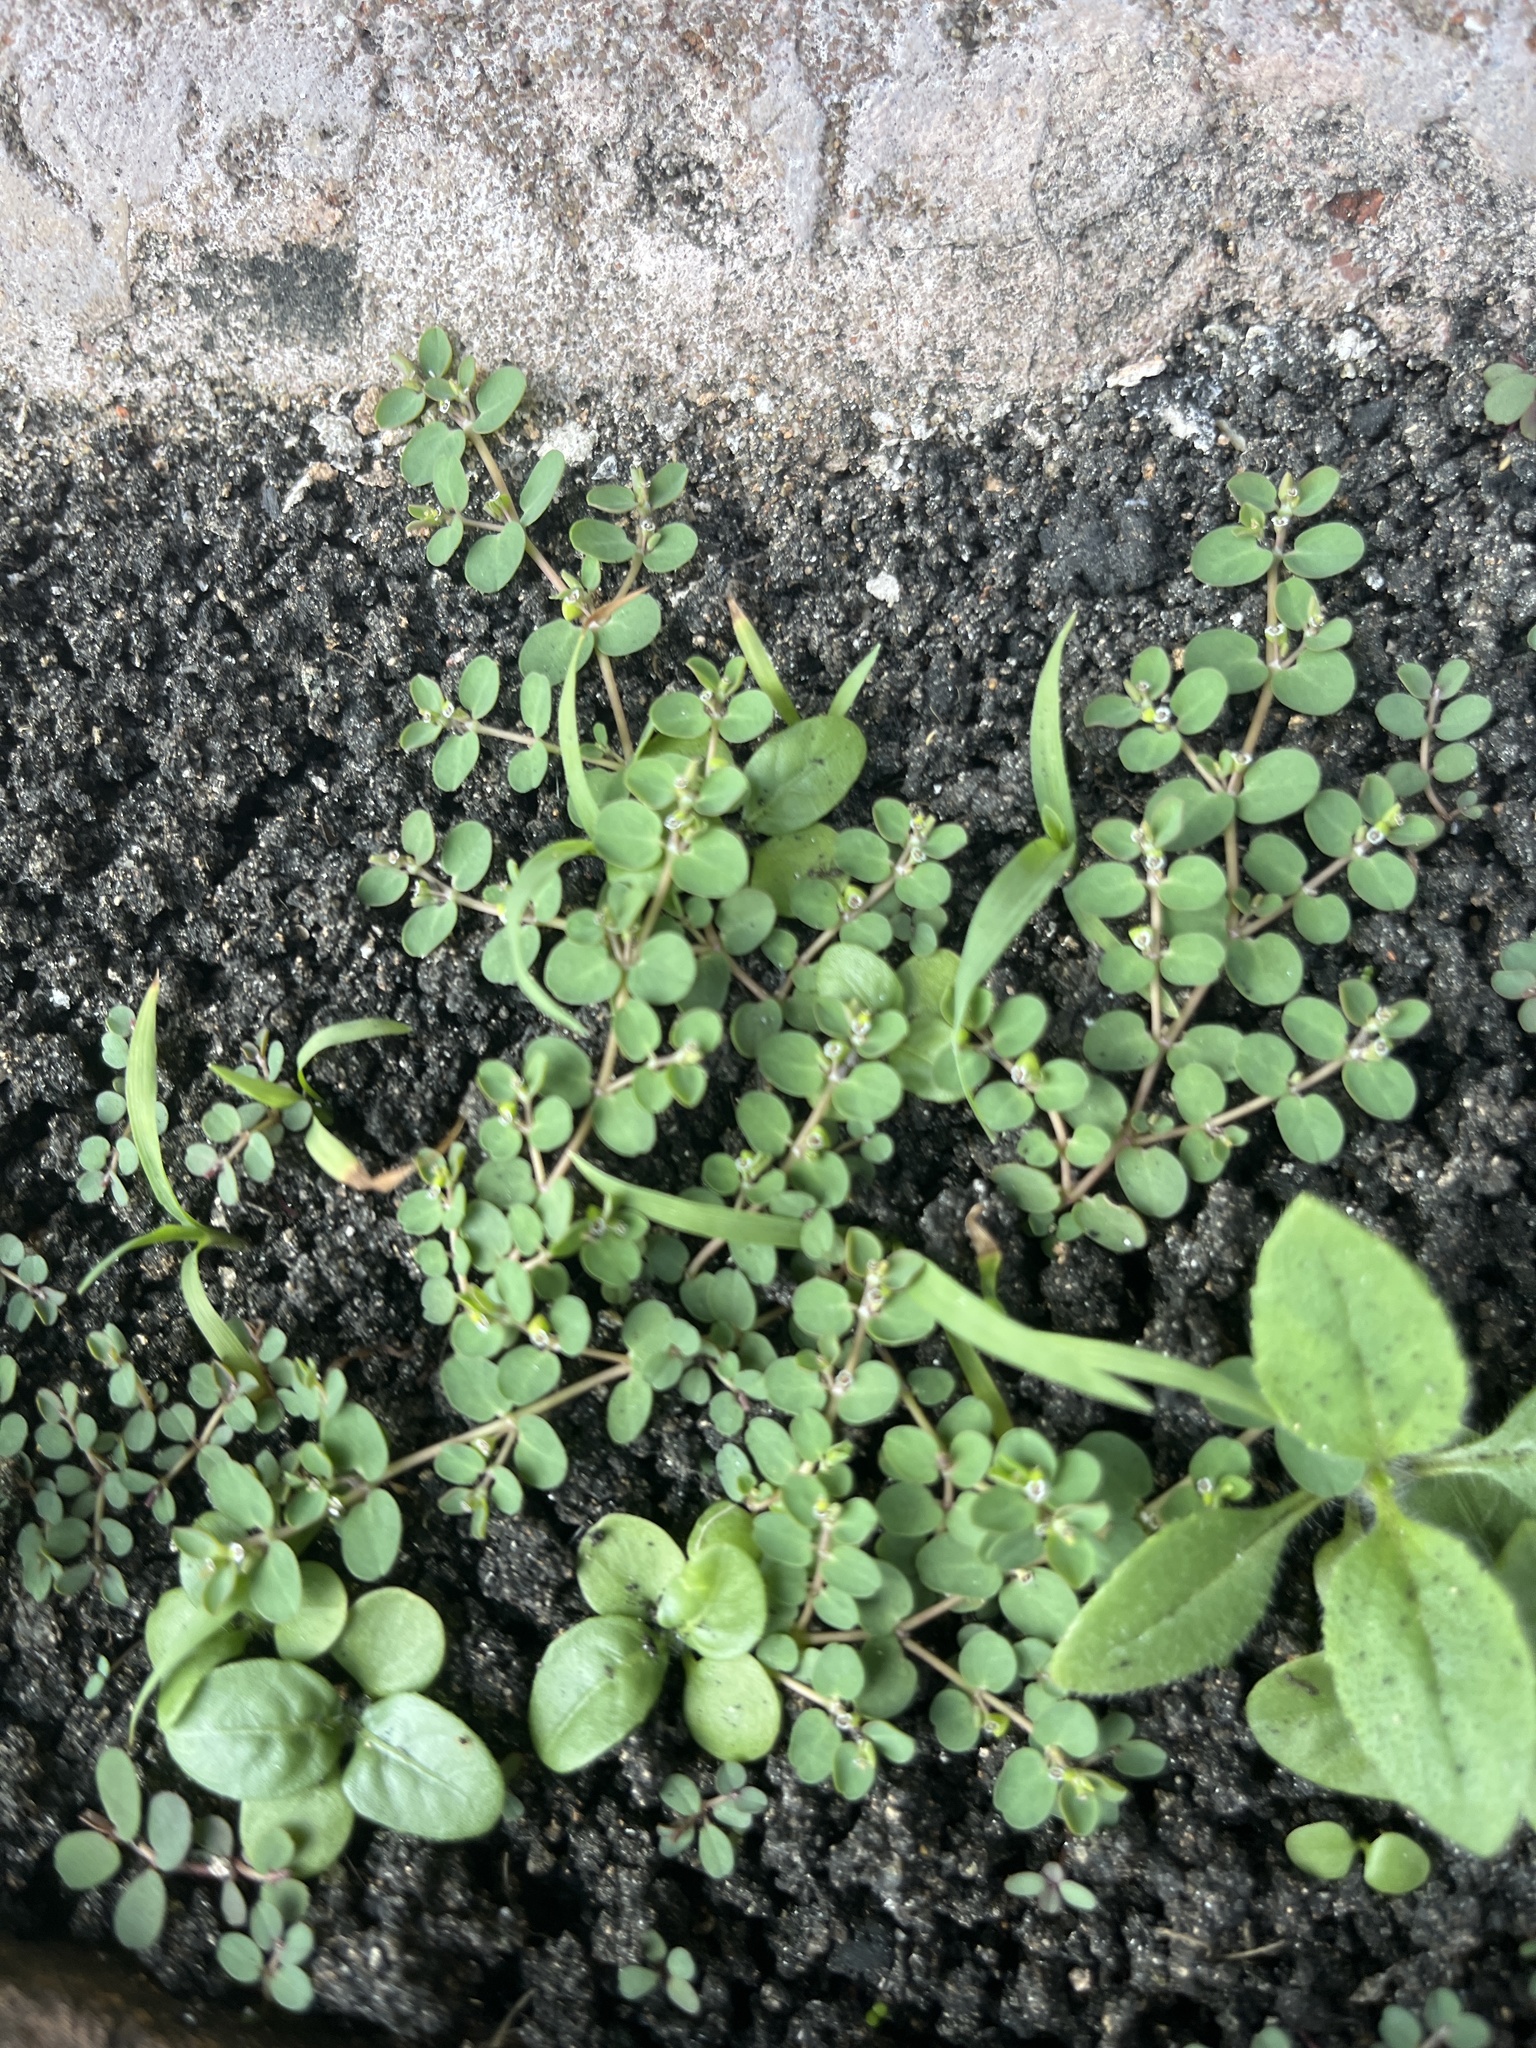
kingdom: Plantae
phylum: Tracheophyta
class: Magnoliopsida
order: Malpighiales
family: Euphorbiaceae
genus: Euphorbia
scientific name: Euphorbia serpens
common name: Matted sandmat
